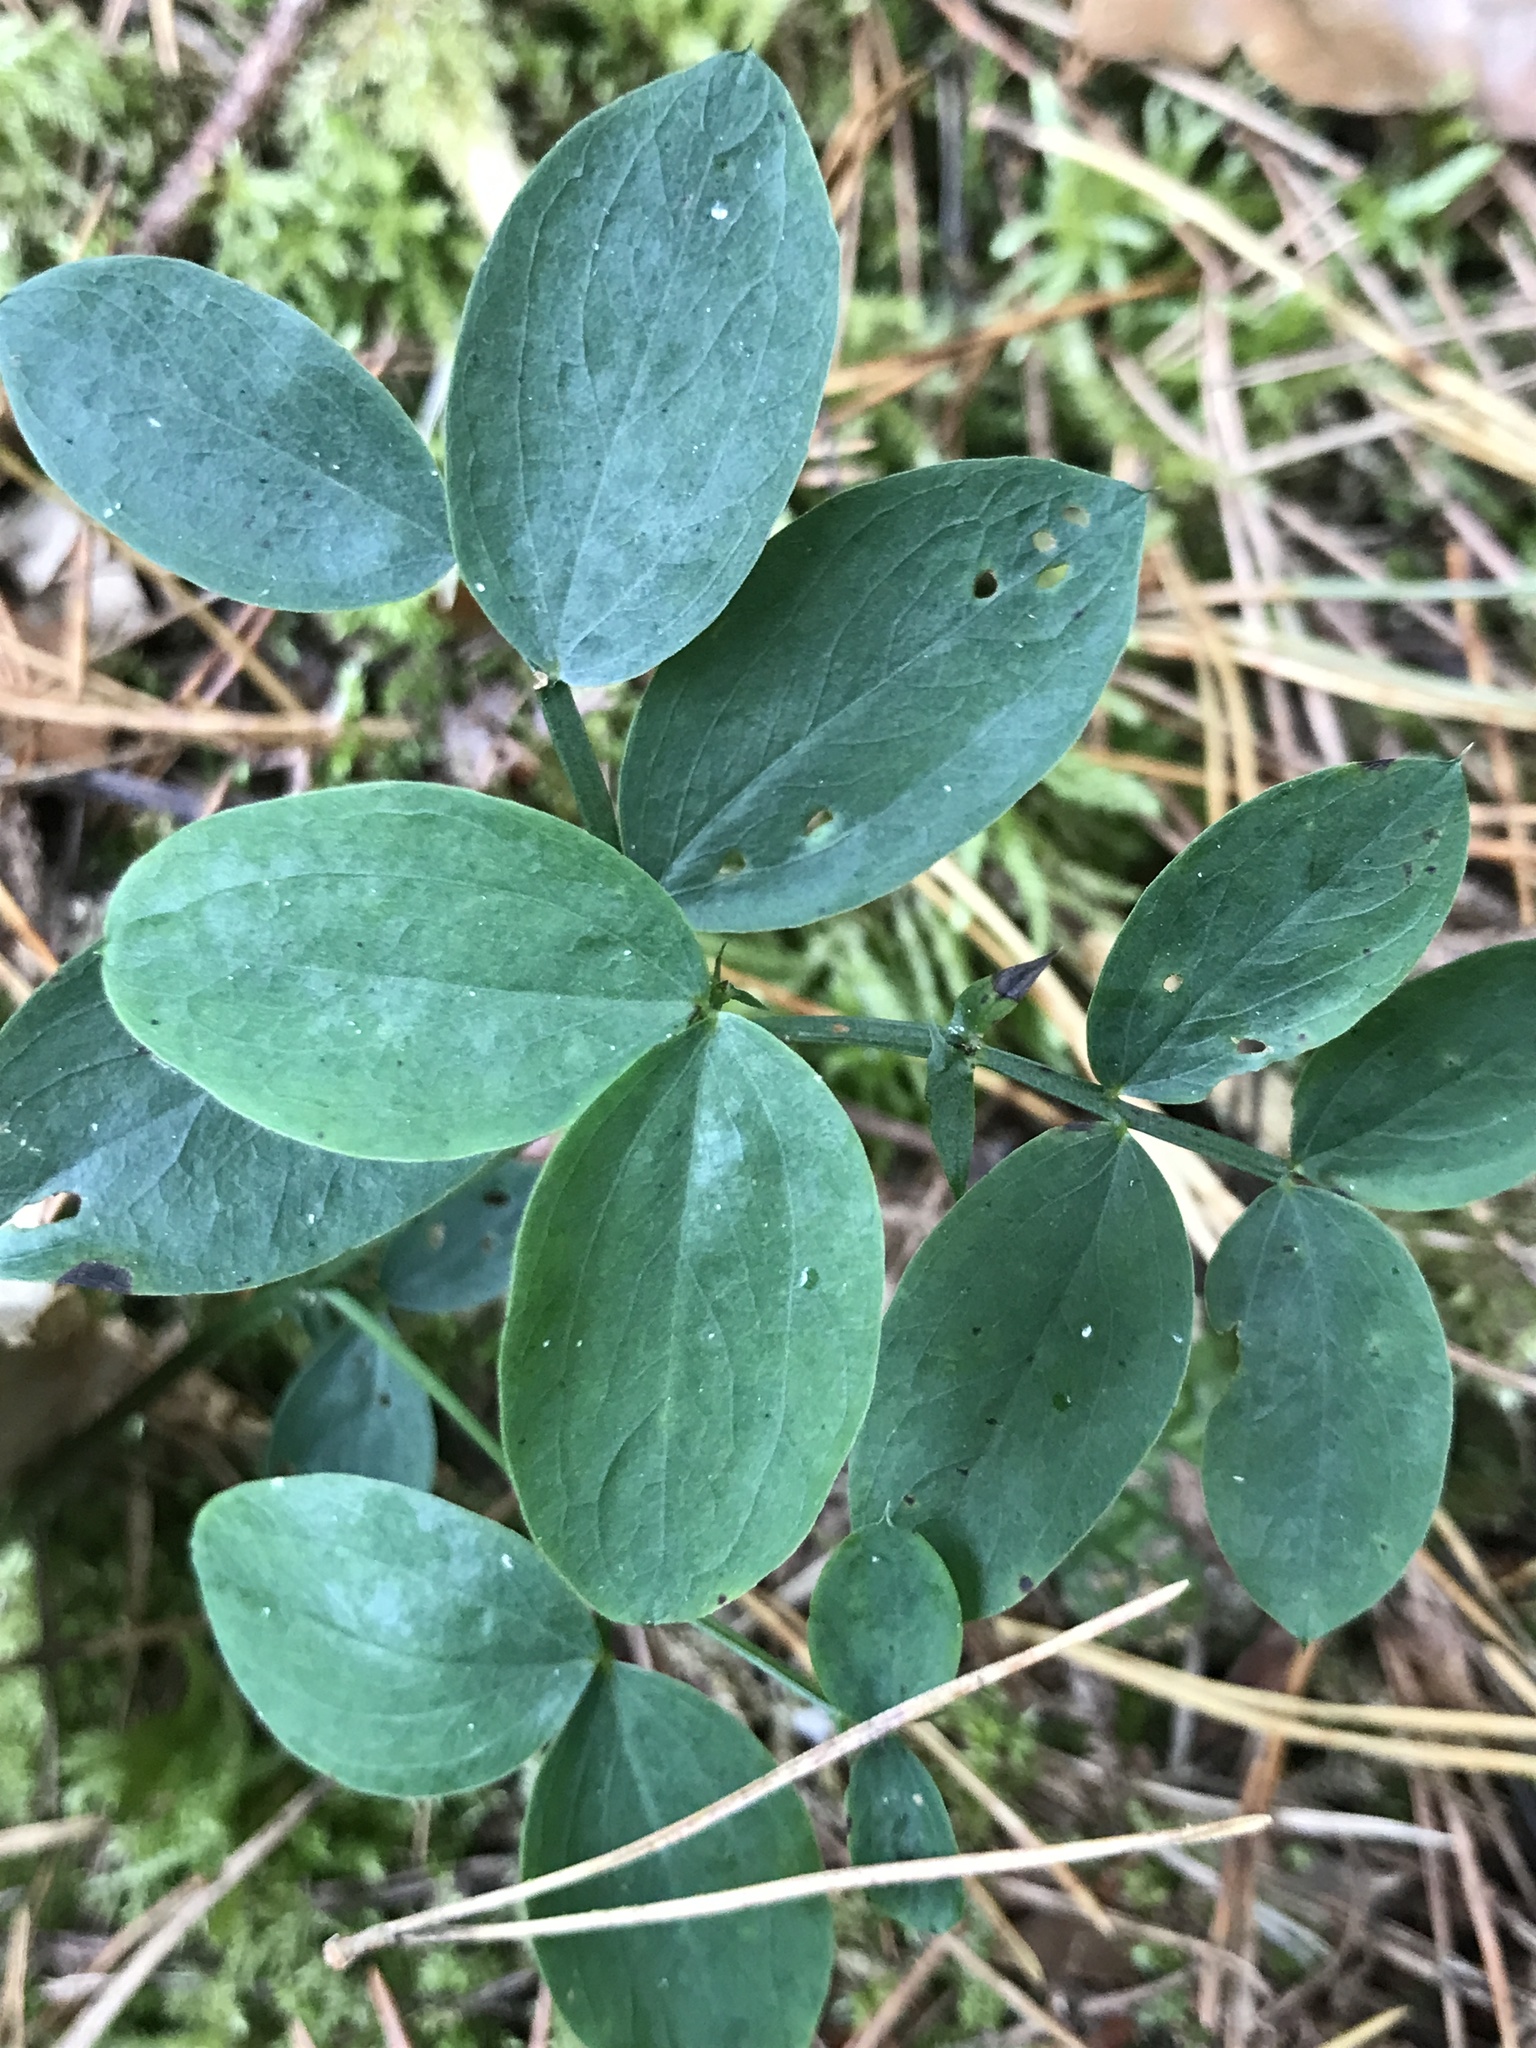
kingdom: Plantae
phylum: Tracheophyta
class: Magnoliopsida
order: Fabales
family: Fabaceae
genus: Lathyrus
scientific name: Lathyrus linifolius
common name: Bitter-vetch
